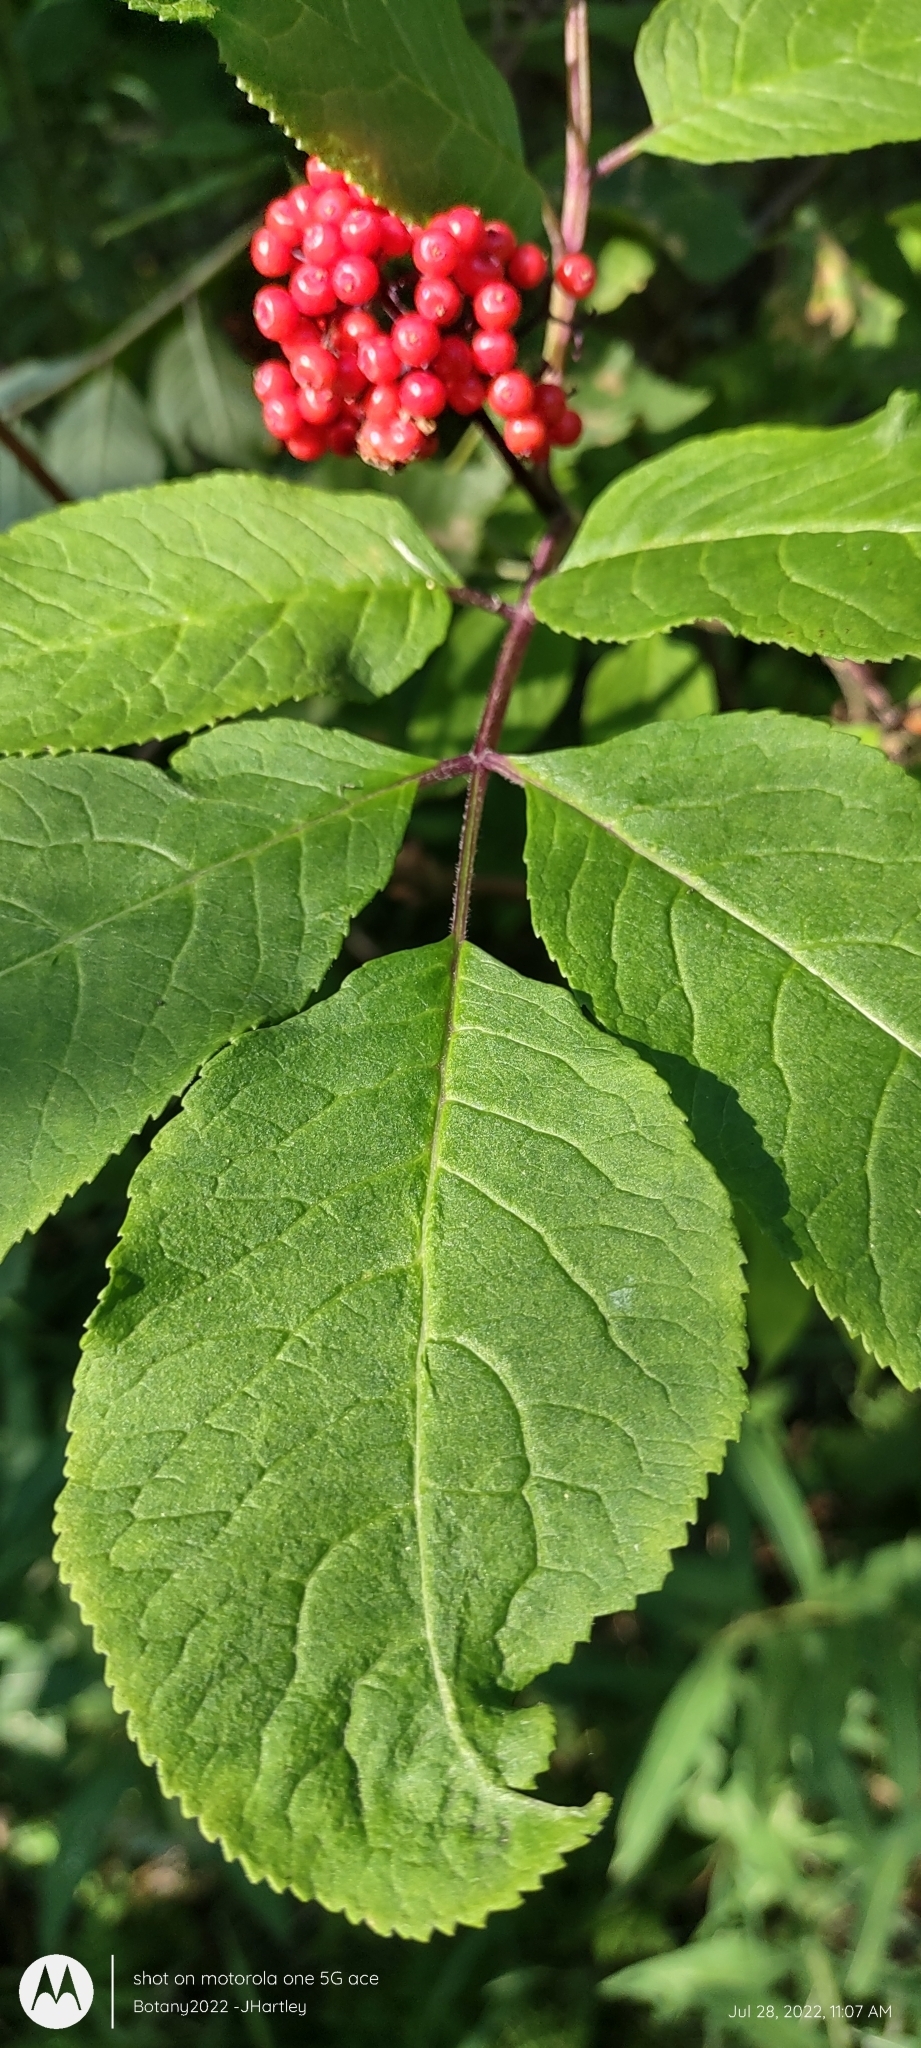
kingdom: Plantae
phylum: Tracheophyta
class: Magnoliopsida
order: Dipsacales
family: Viburnaceae
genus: Sambucus
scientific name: Sambucus racemosa
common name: Red-berried elder
